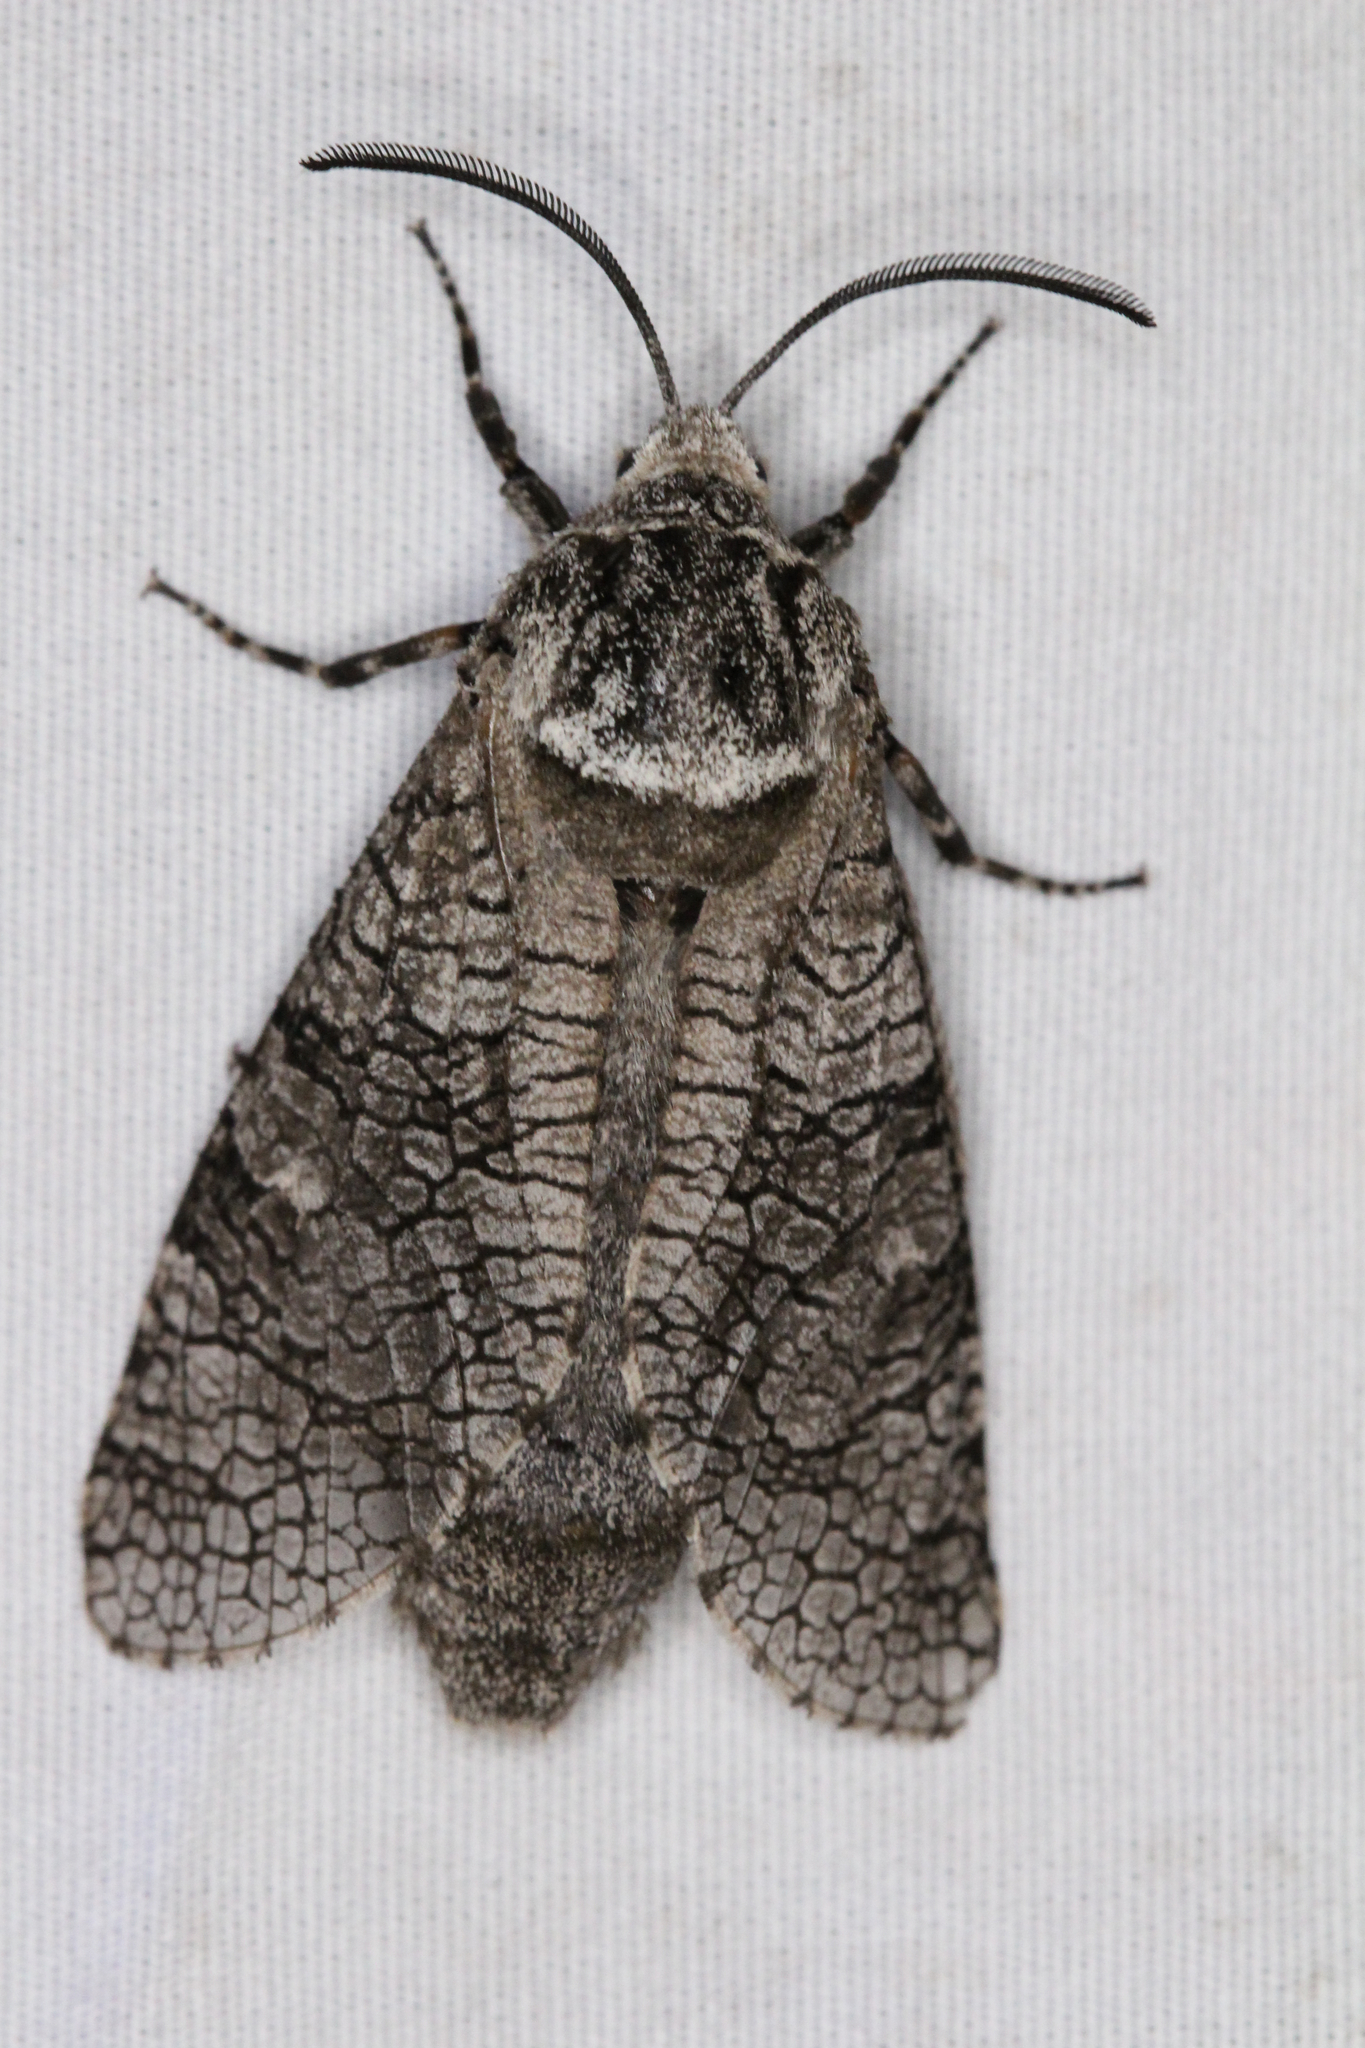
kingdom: Animalia
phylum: Arthropoda
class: Insecta
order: Lepidoptera
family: Cossidae
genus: Prionoxystus
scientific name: Prionoxystus macmurtrei
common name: Little carpenterworm
